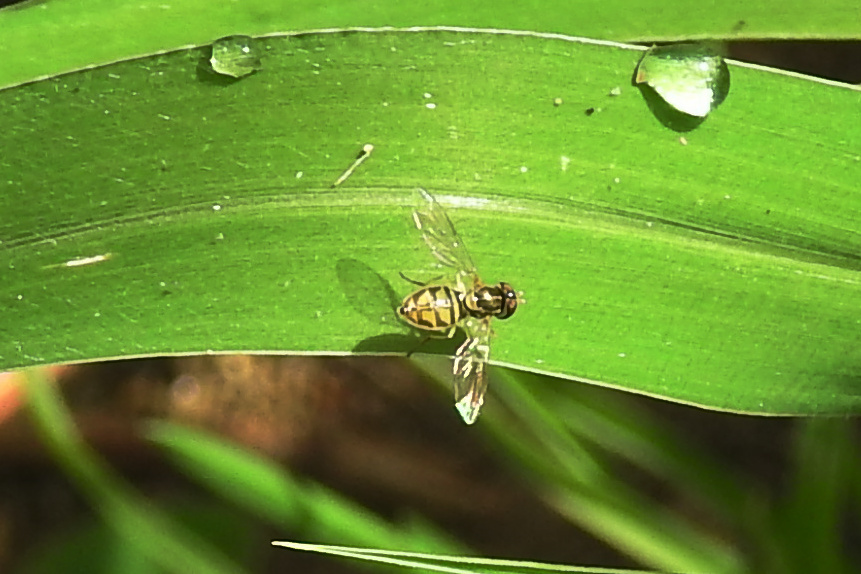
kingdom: Animalia
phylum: Arthropoda
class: Insecta
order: Diptera
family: Syrphidae
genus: Toxomerus
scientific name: Toxomerus marginatus
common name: Syrphid fly
